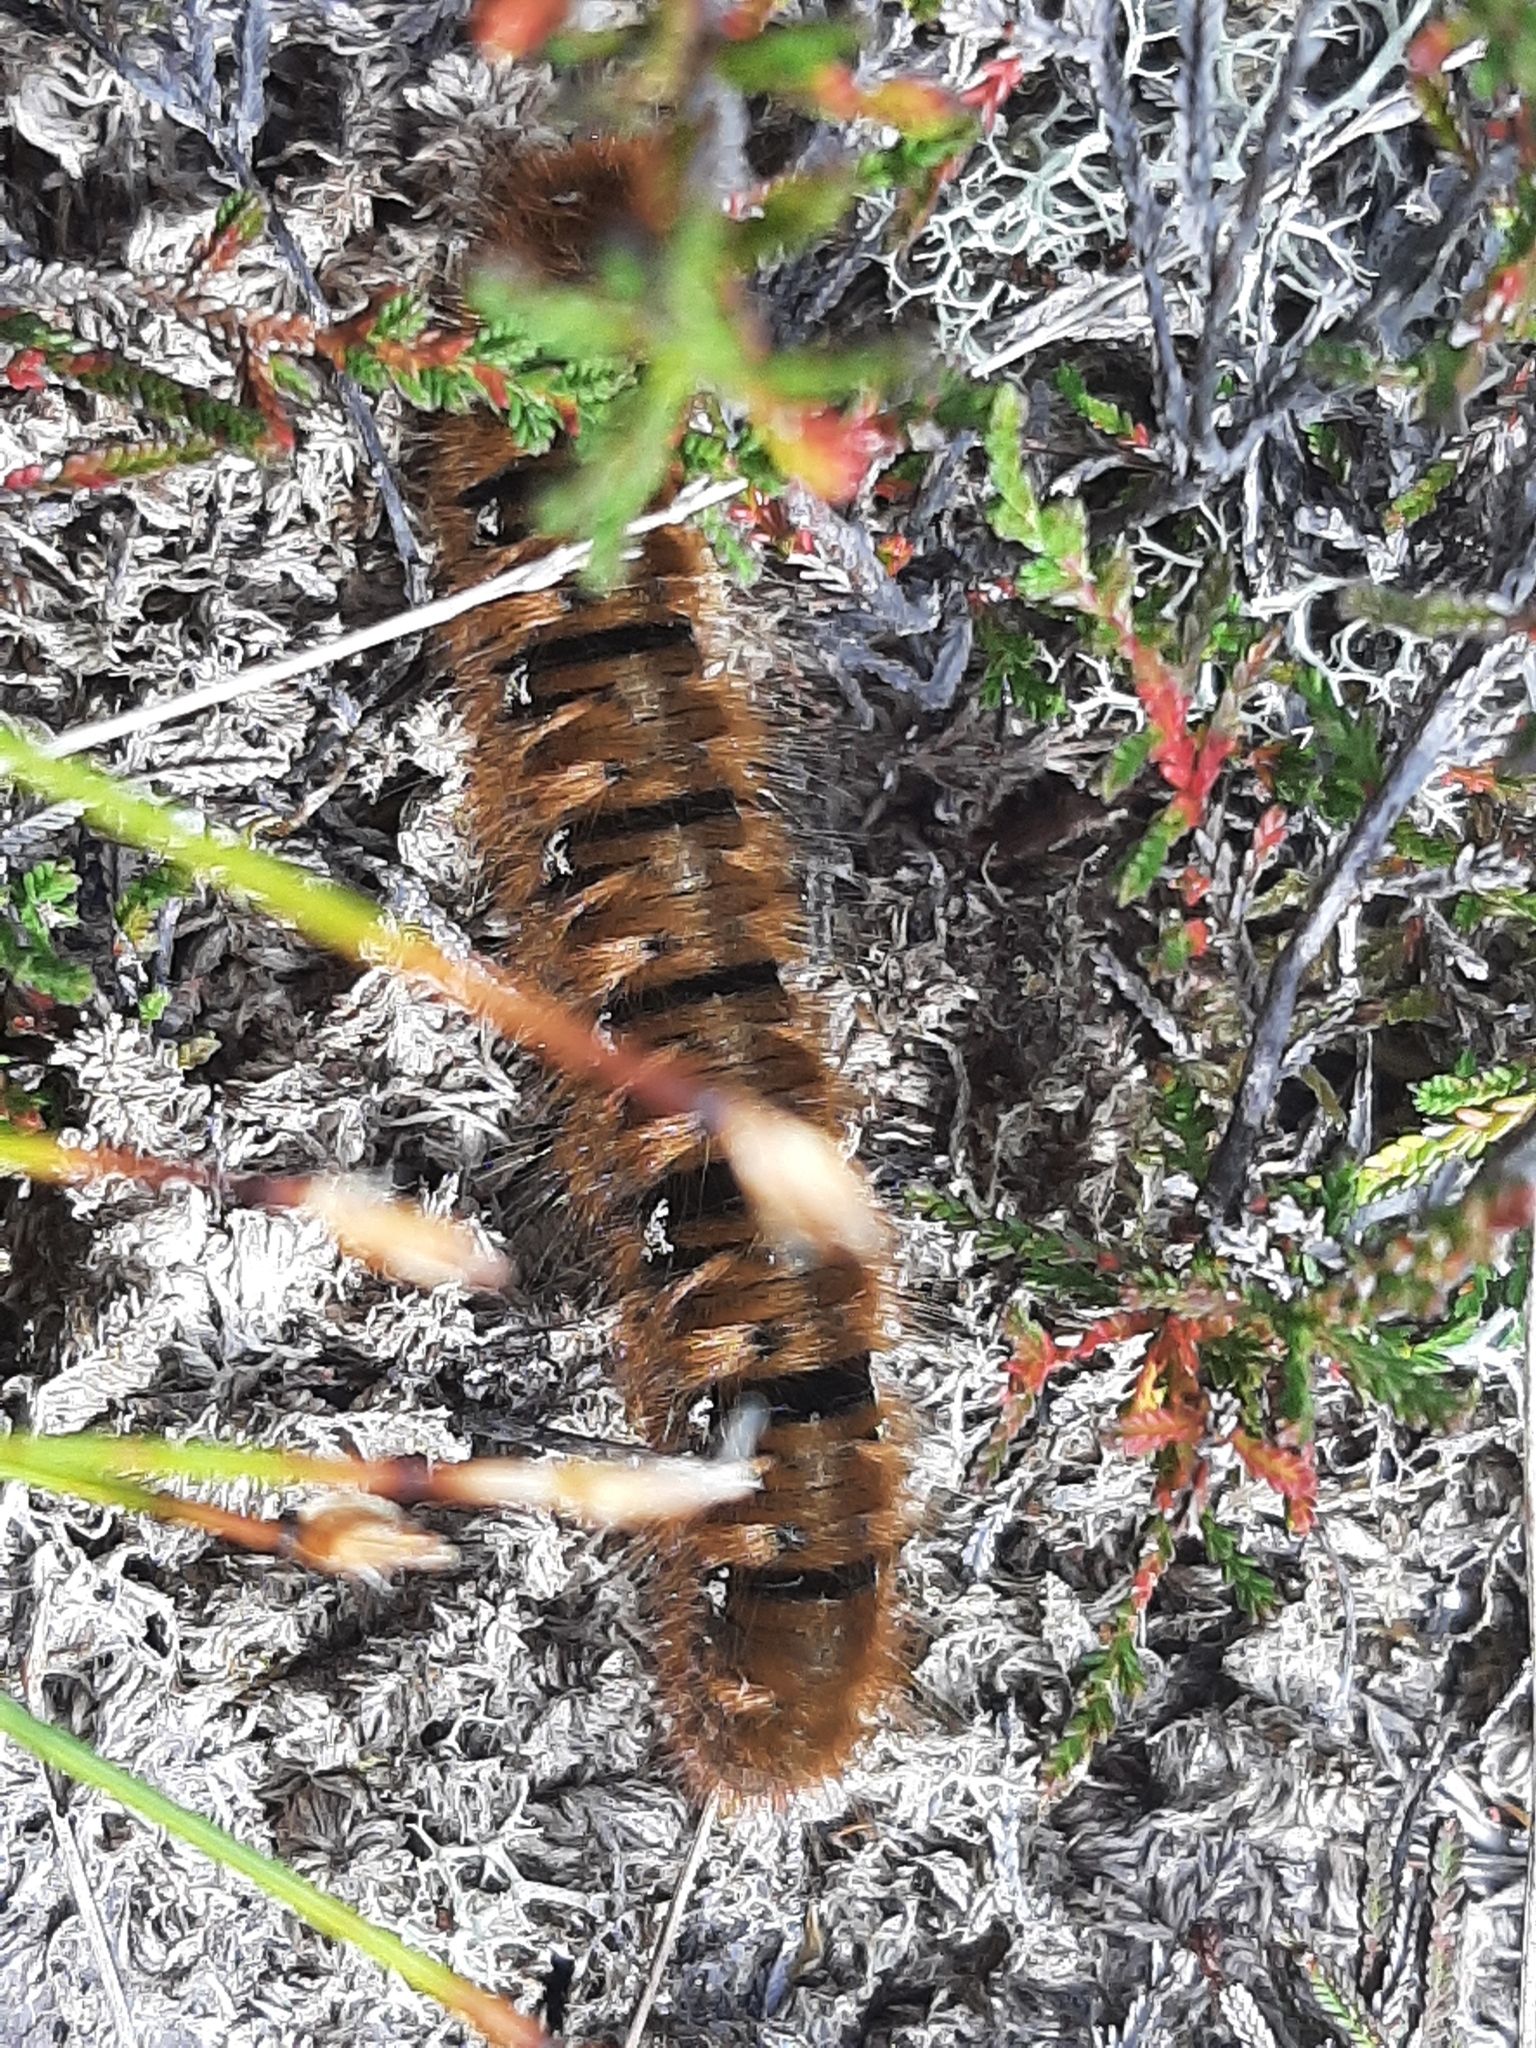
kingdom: Animalia
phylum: Arthropoda
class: Insecta
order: Lepidoptera
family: Lasiocampidae
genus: Lasiocampa
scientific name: Lasiocampa quercus
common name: Oak eggar
